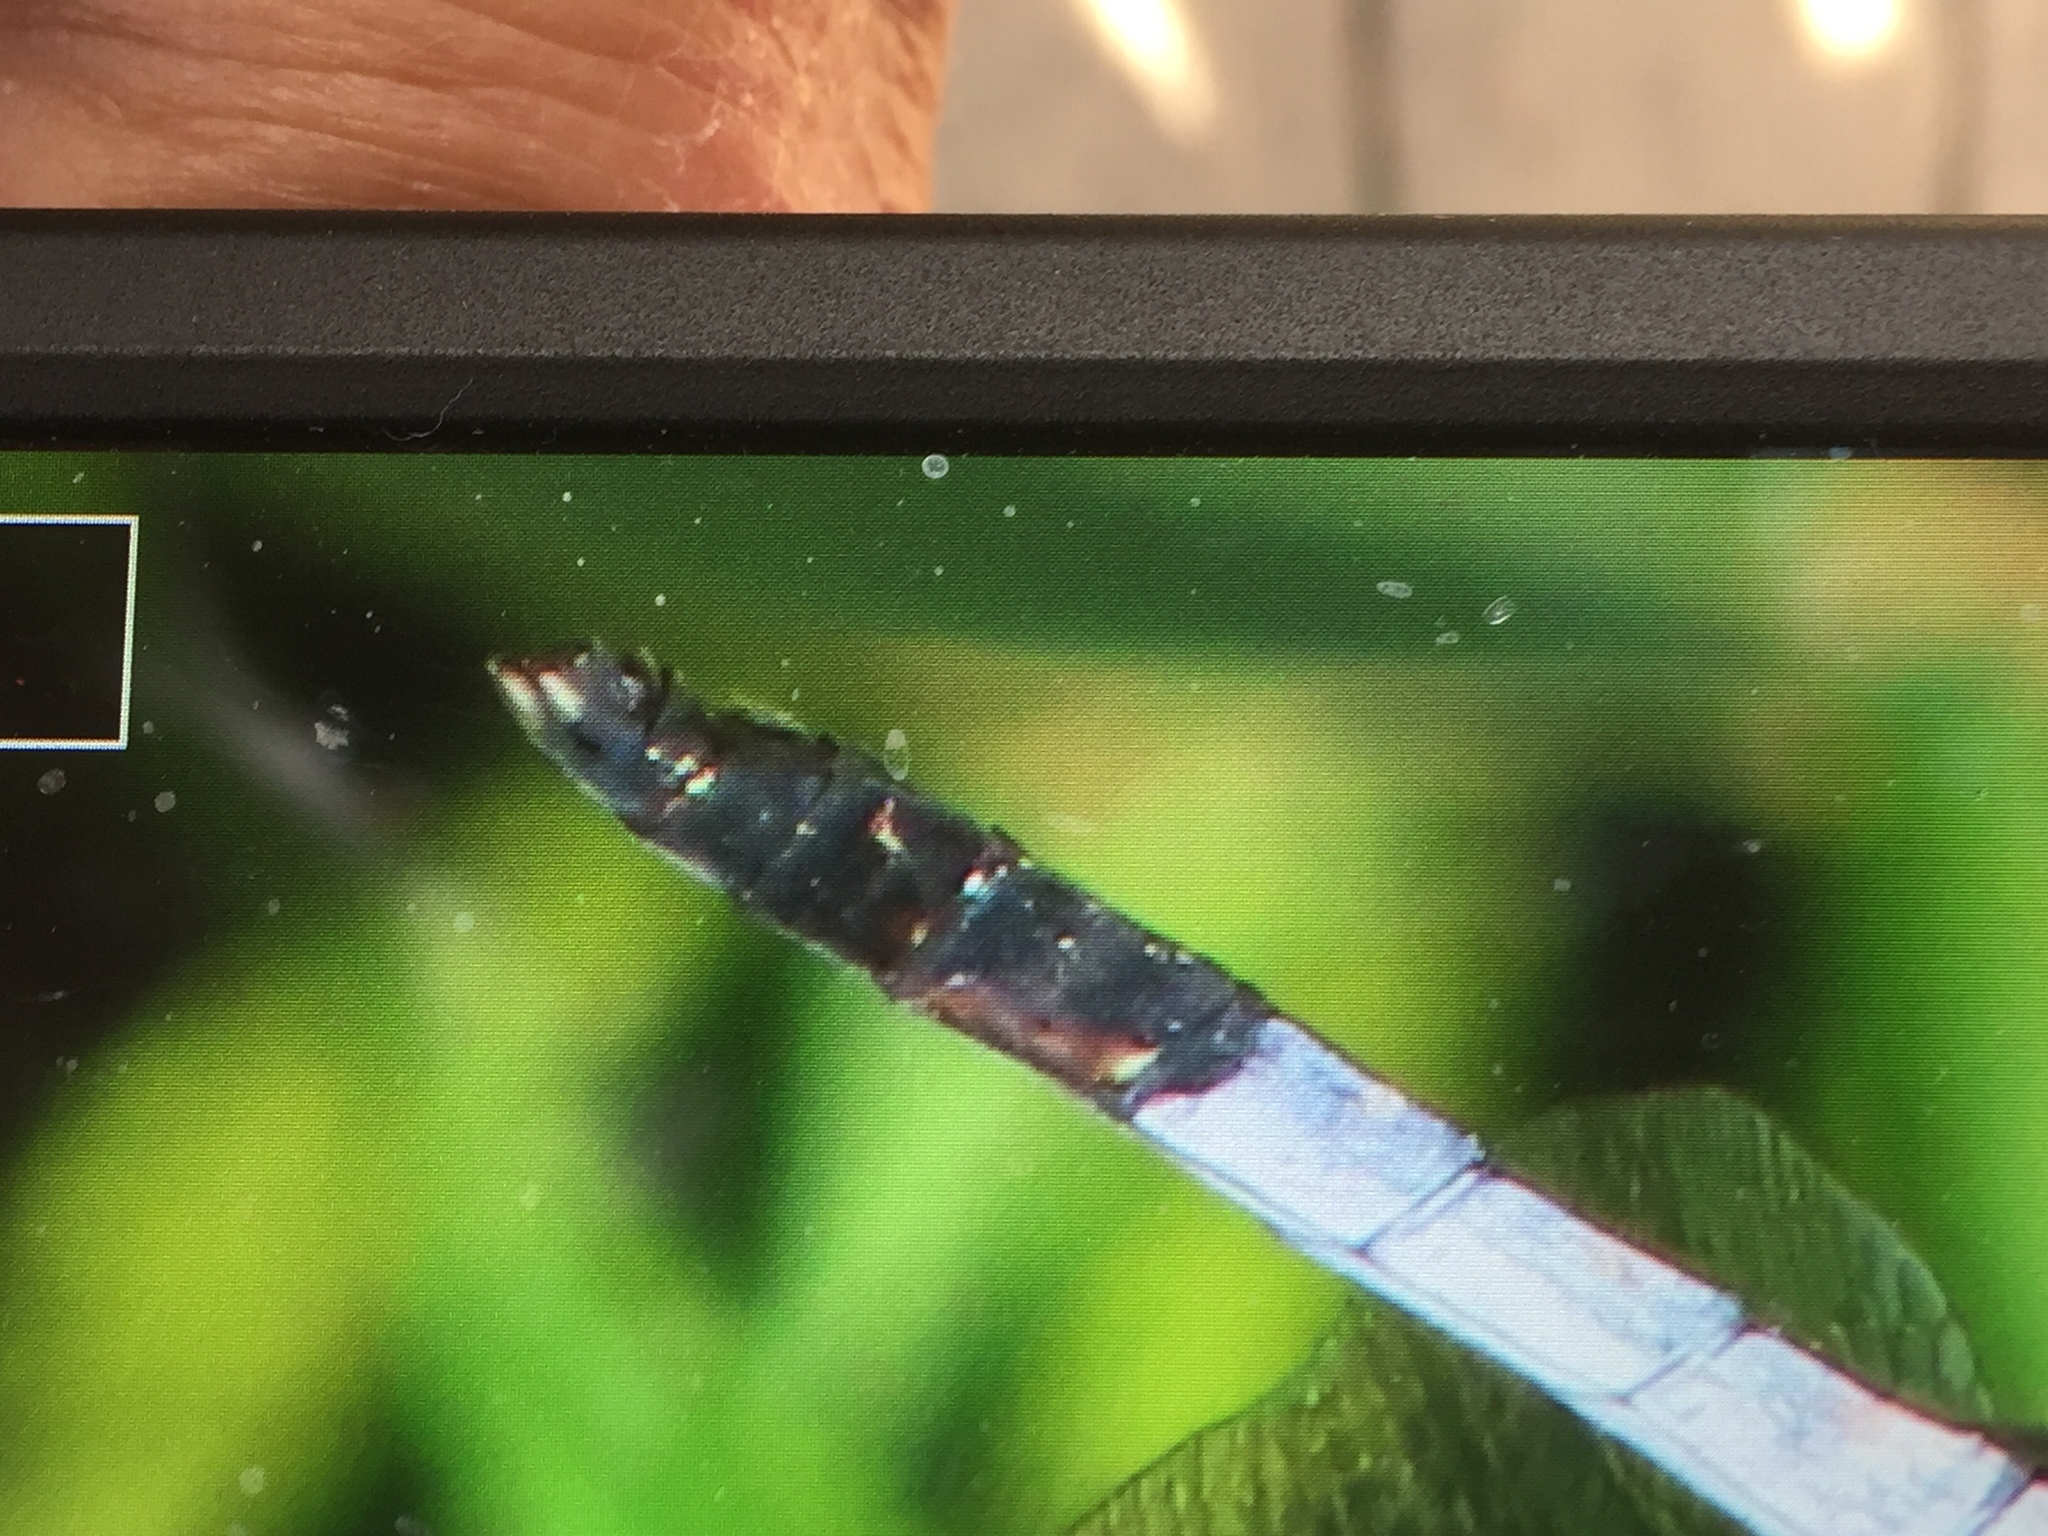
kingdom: Animalia
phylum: Arthropoda
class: Insecta
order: Odonata
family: Libellulidae
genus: Orthetrum
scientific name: Orthetrum albistylum
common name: White-tailed skimmer
